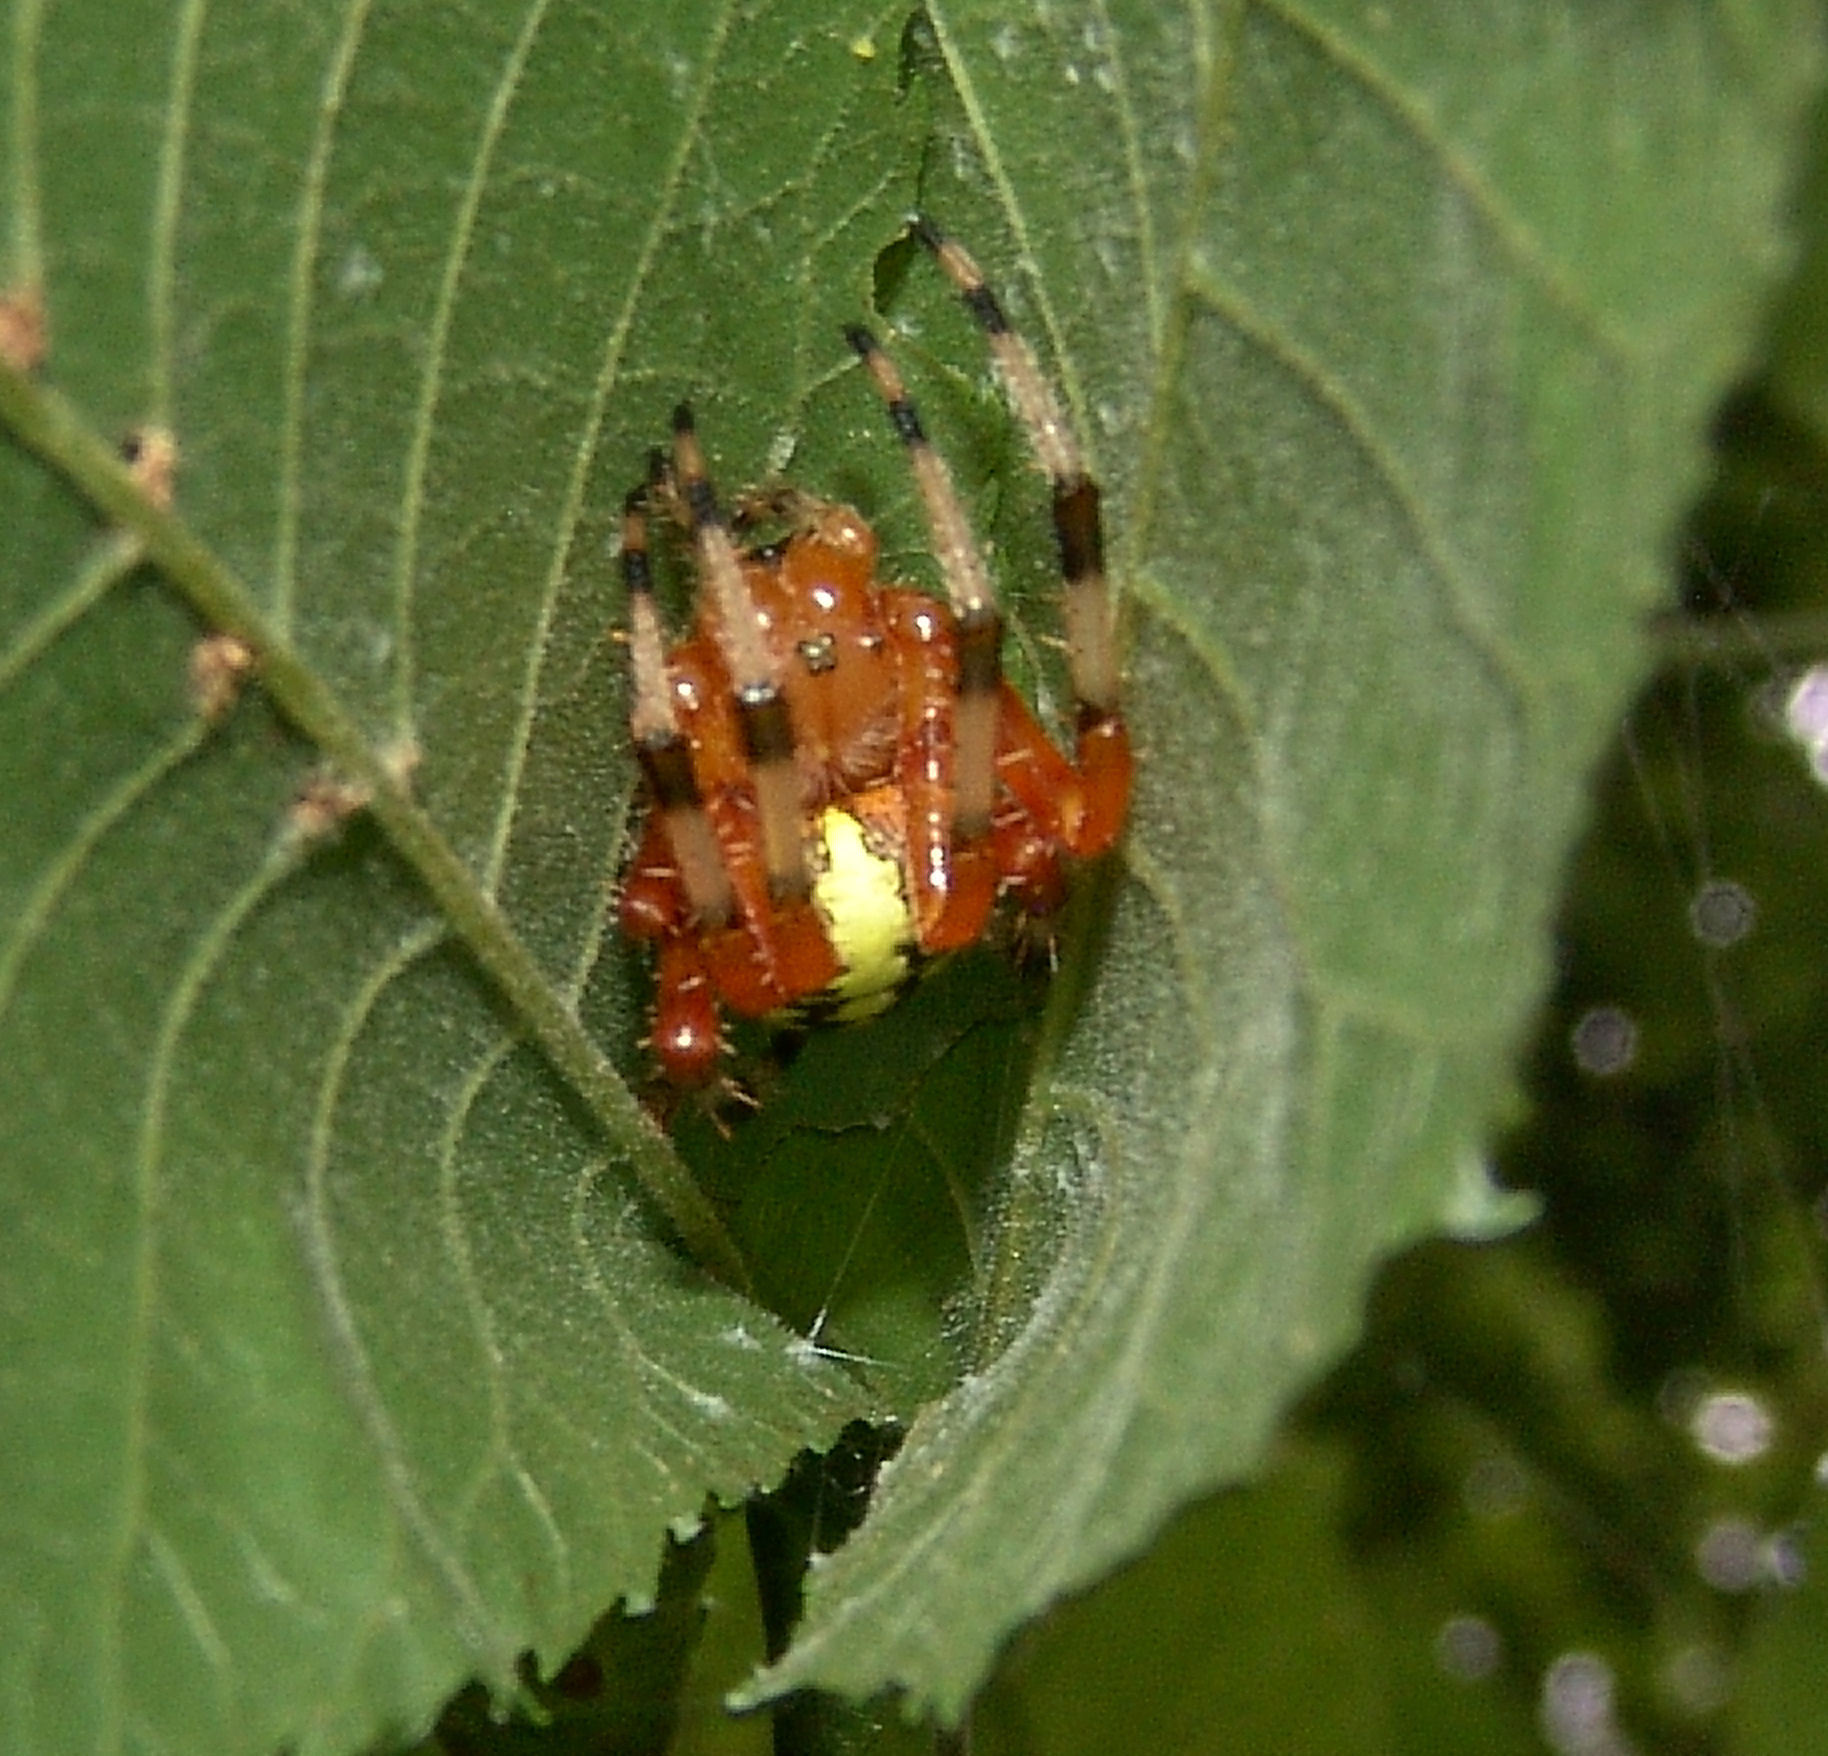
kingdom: Animalia
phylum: Arthropoda
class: Arachnida
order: Araneae
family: Araneidae
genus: Araneus
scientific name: Araneus marmoreus
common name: Marbled orbweaver
